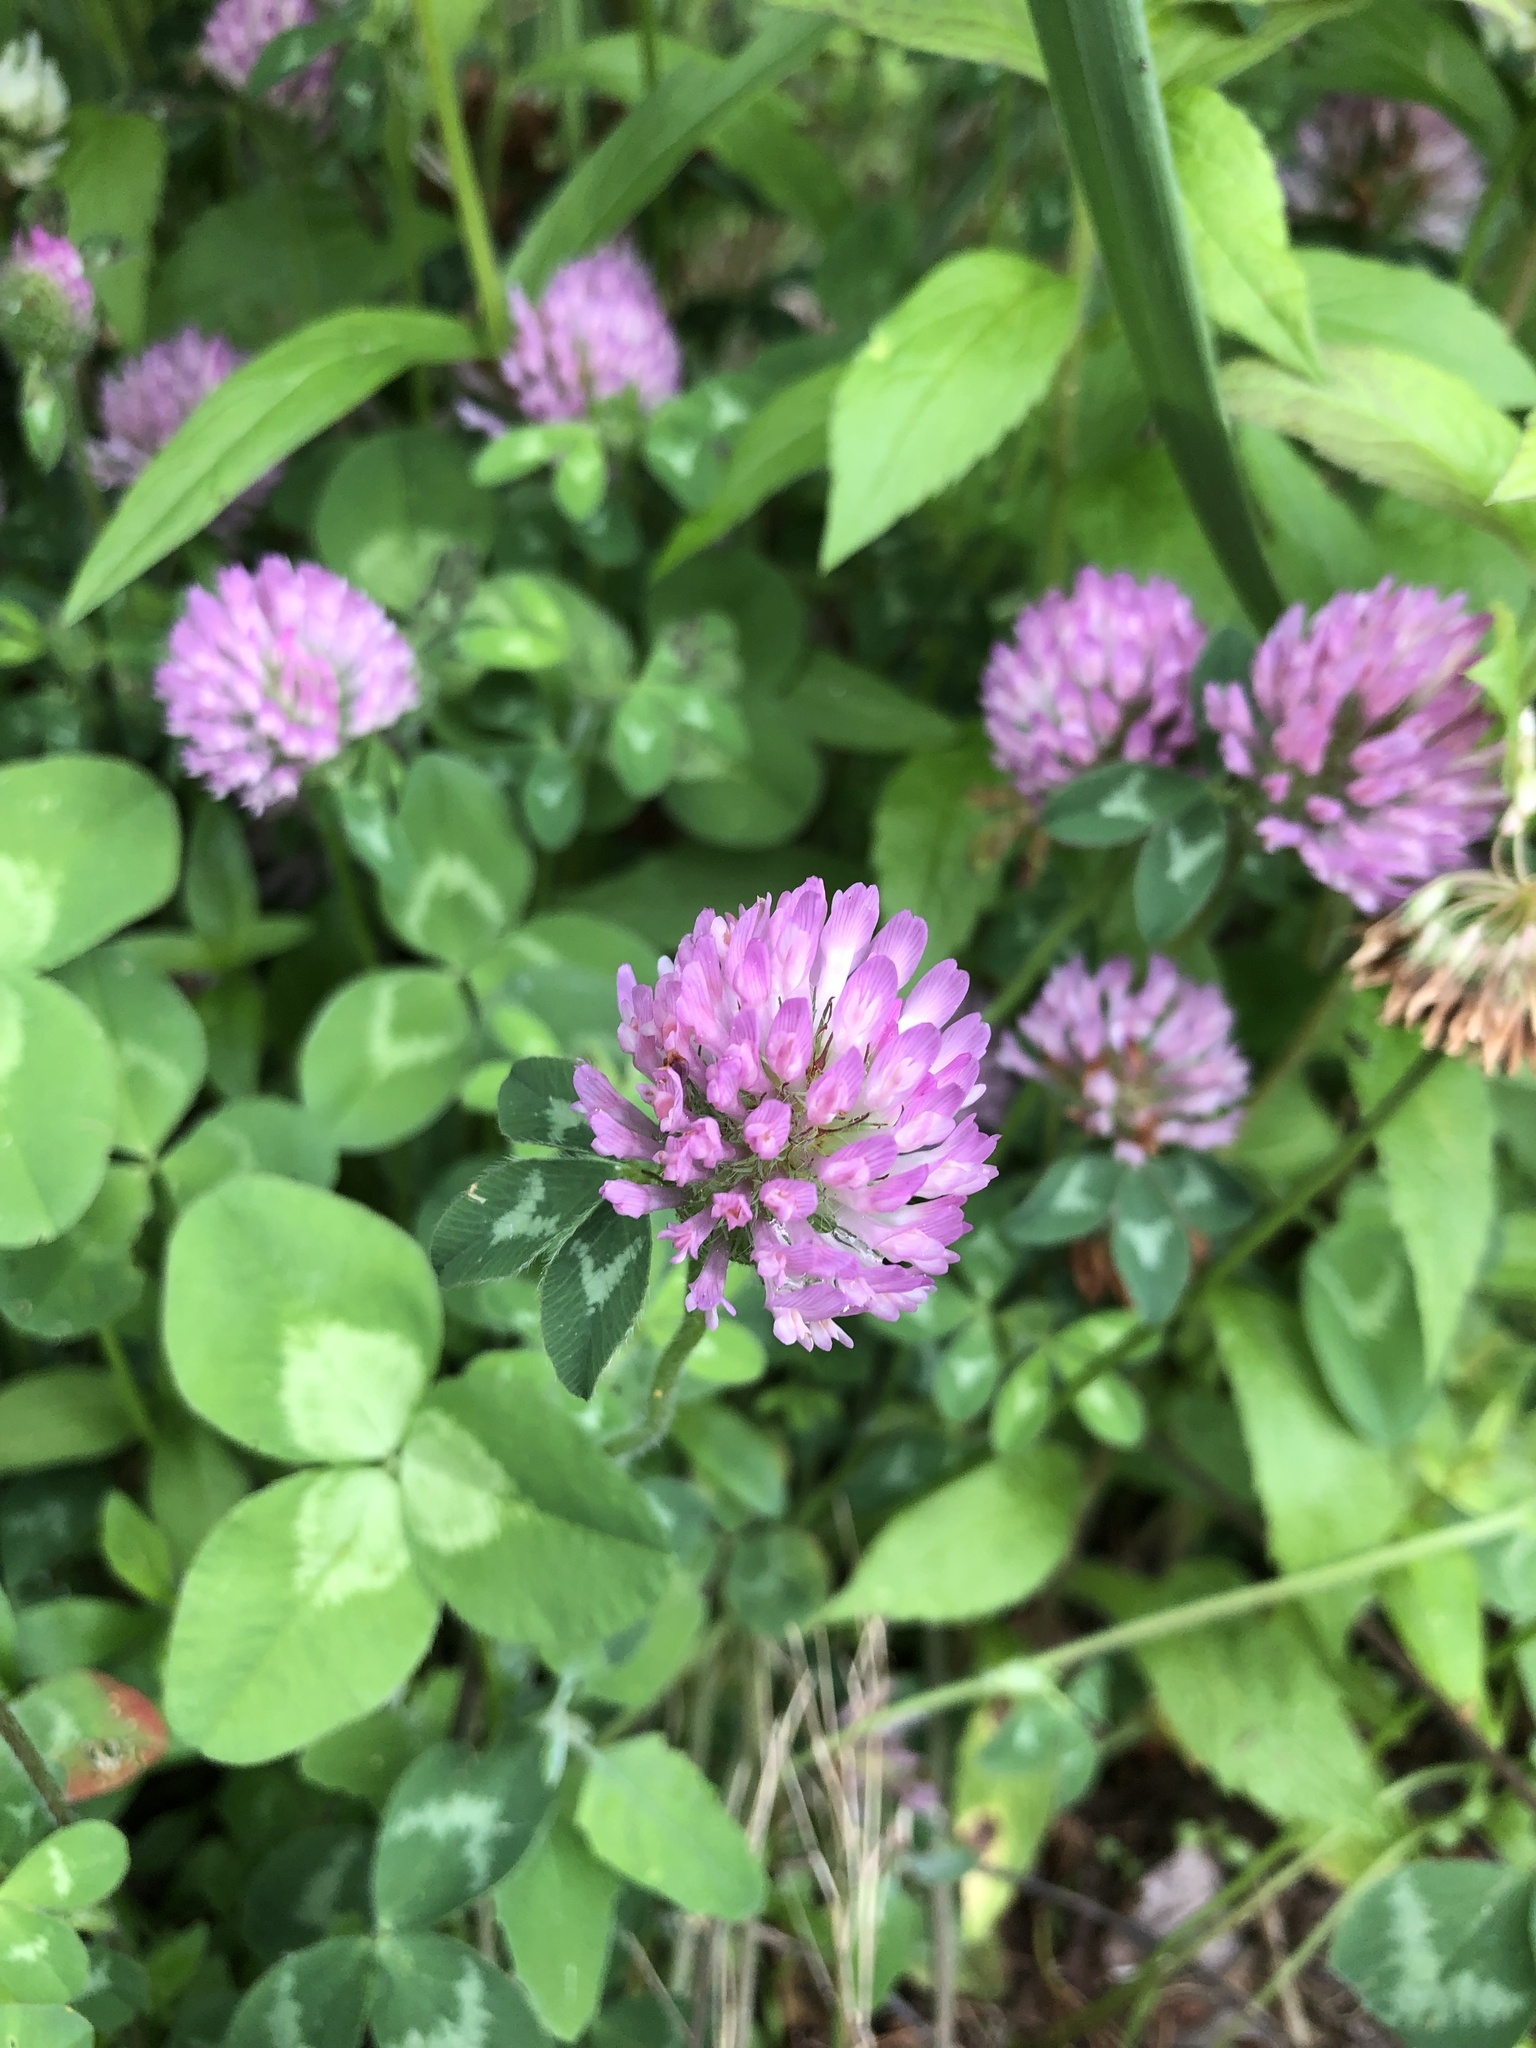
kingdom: Plantae
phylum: Tracheophyta
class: Magnoliopsida
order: Fabales
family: Fabaceae
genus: Trifolium
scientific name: Trifolium pratense
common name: Red clover
